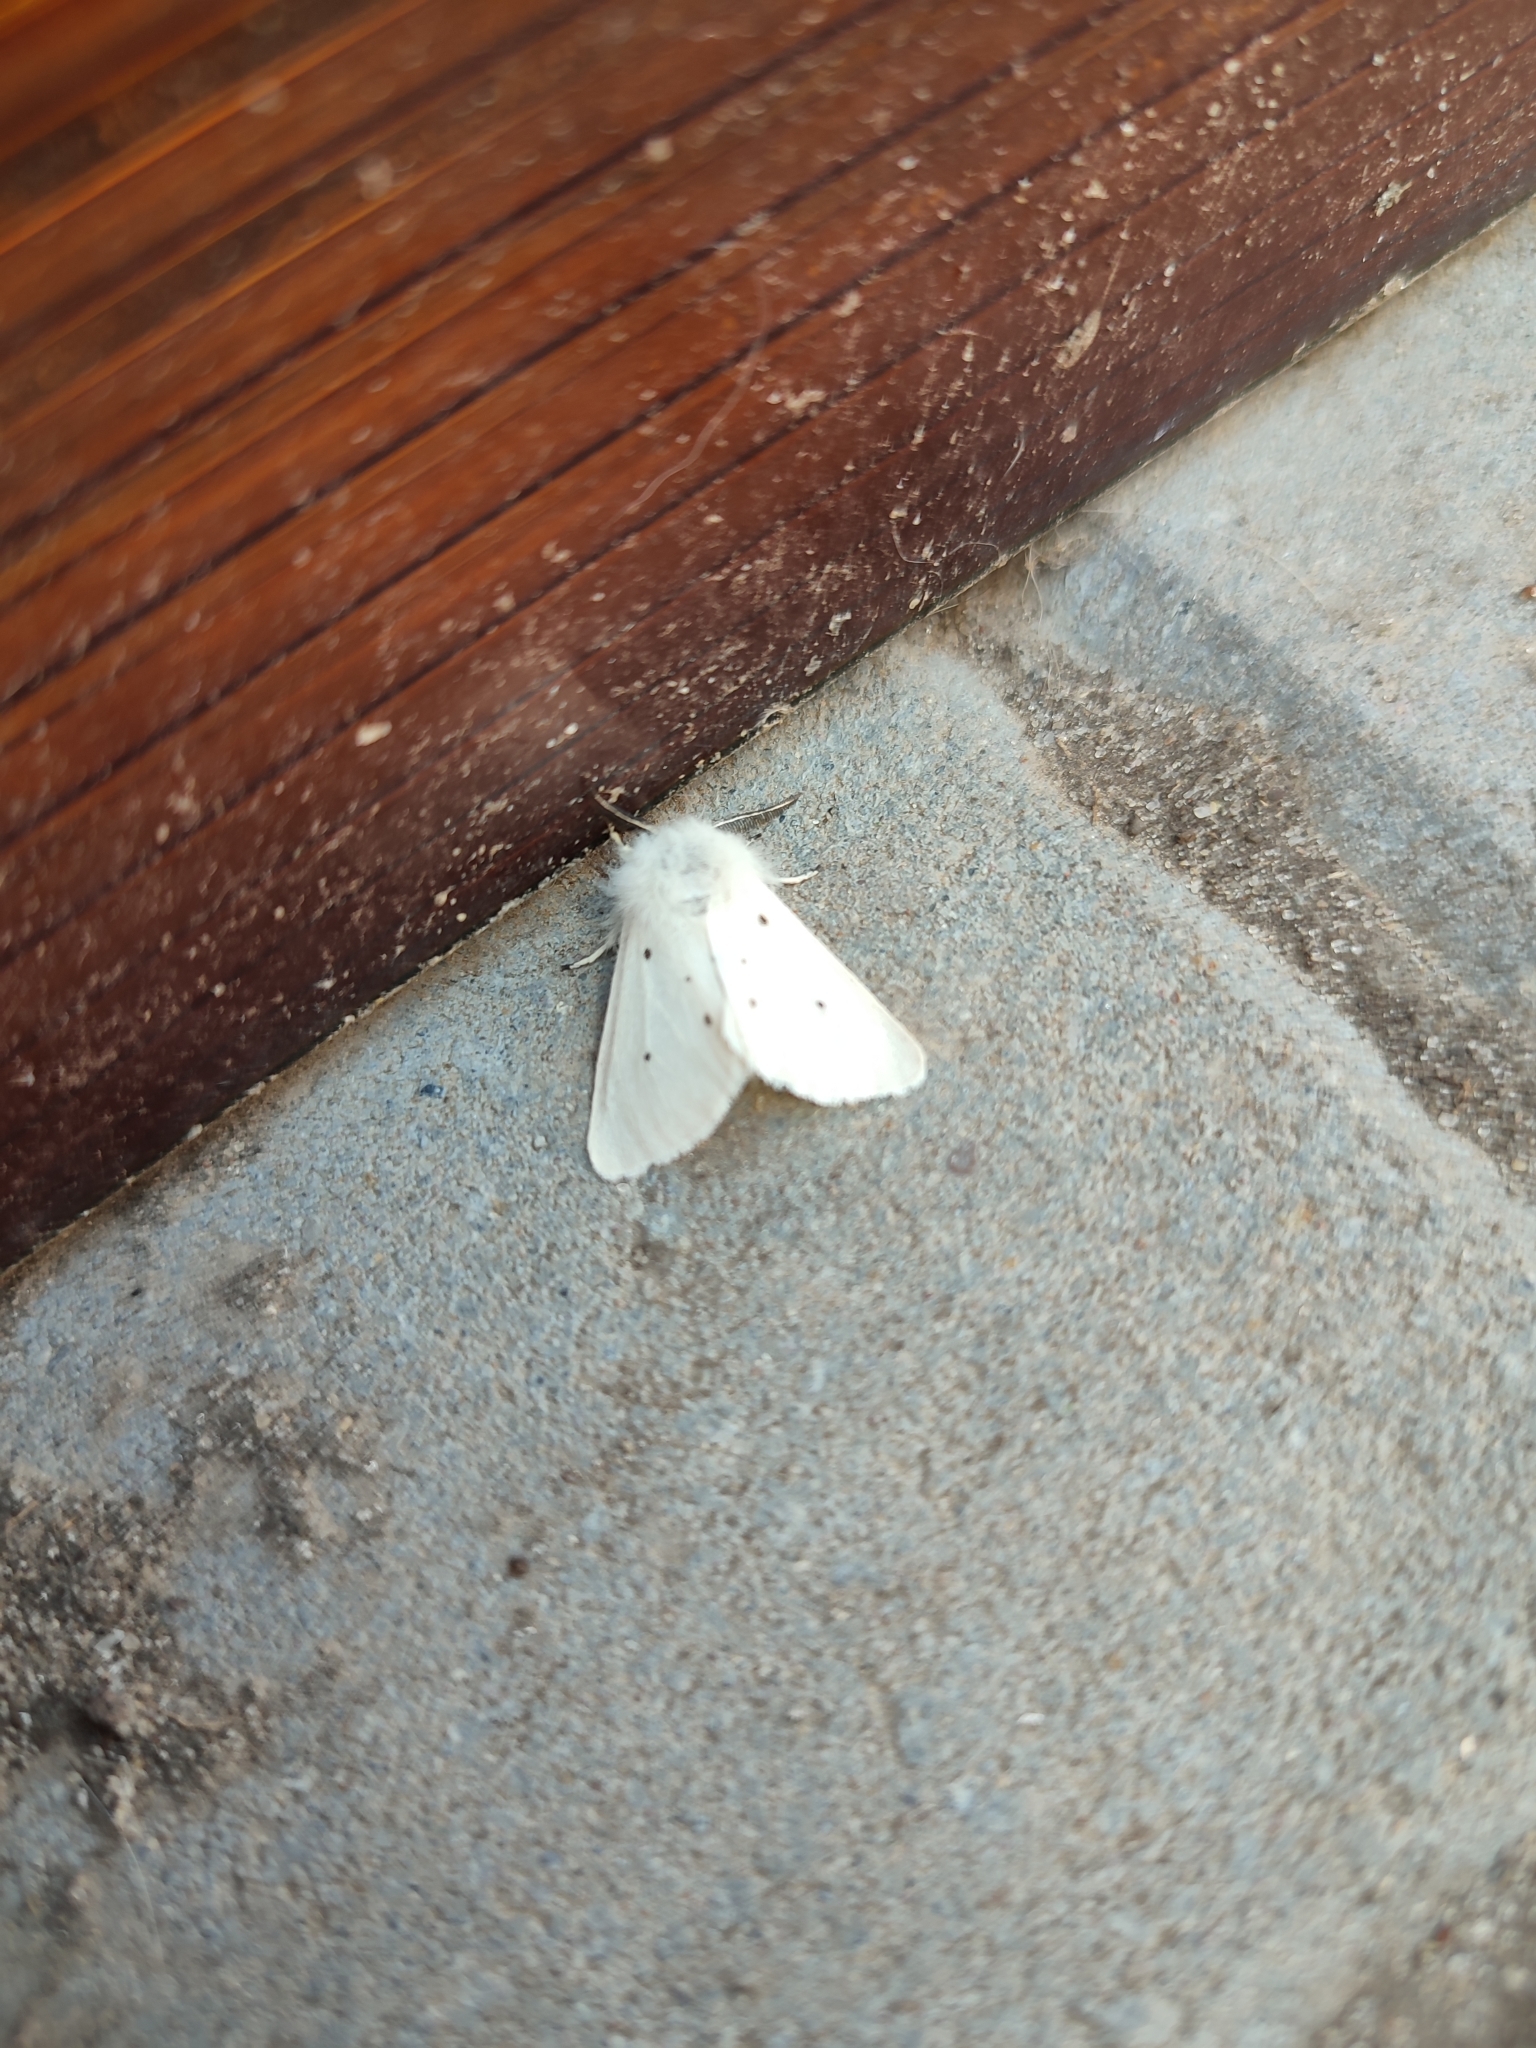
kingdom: Animalia
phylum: Arthropoda
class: Insecta
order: Lepidoptera
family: Erebidae
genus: Diaphora
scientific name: Diaphora mendica
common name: Muslin moth
